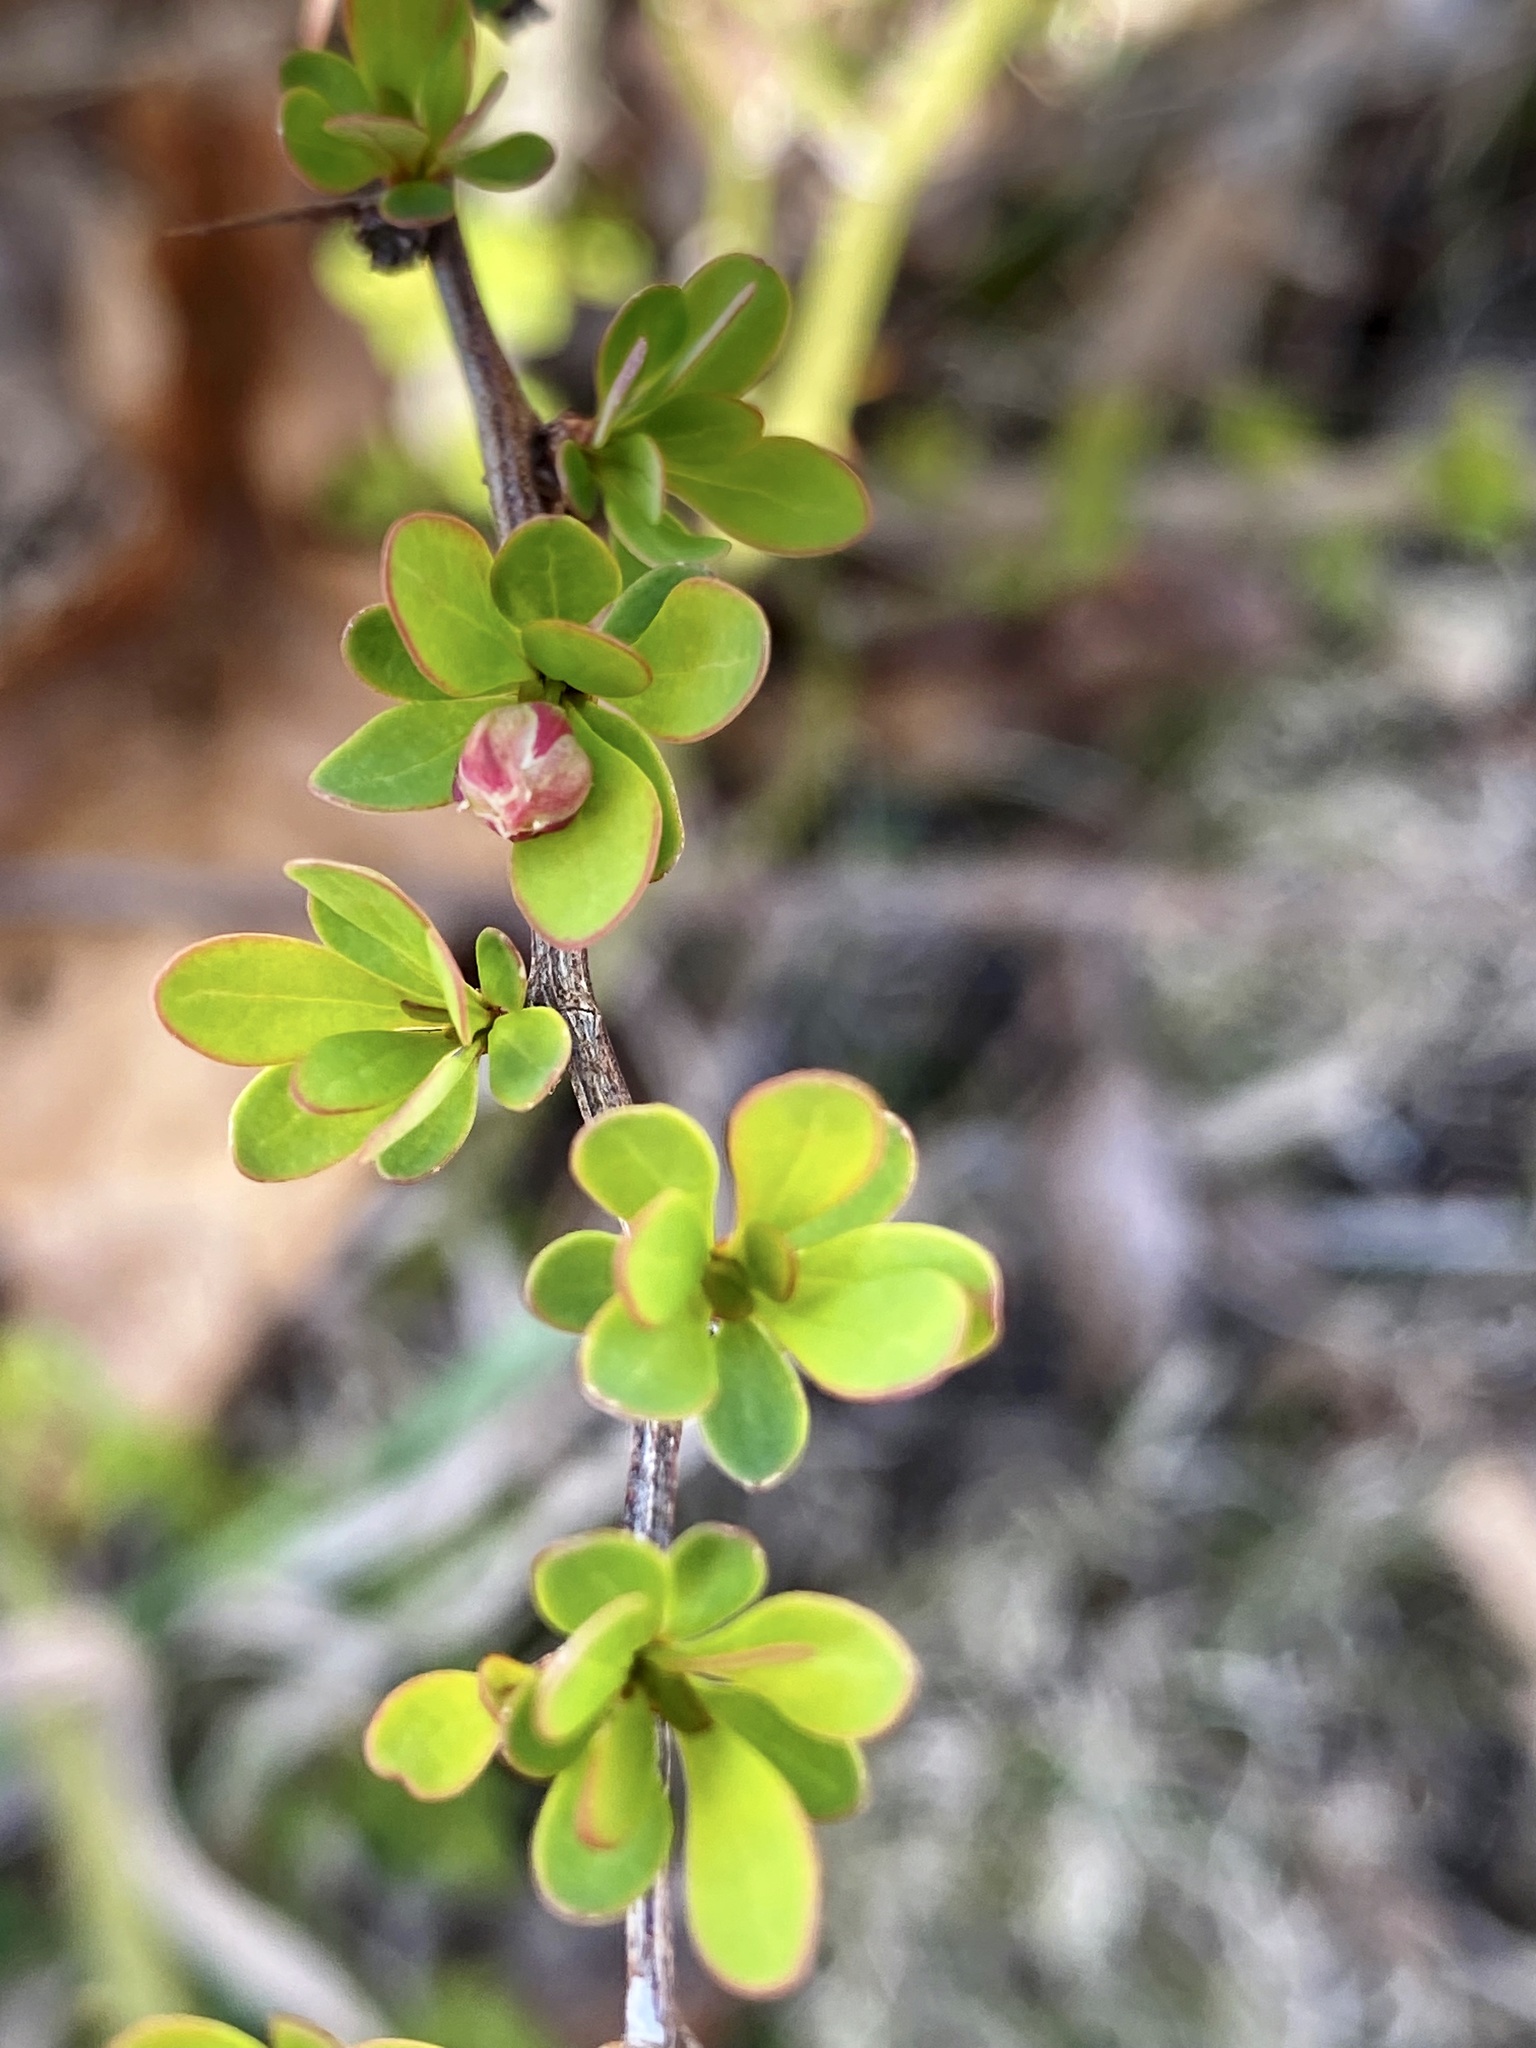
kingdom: Plantae
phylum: Tracheophyta
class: Magnoliopsida
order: Ranunculales
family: Berberidaceae
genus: Berberis
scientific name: Berberis thunbergii
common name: Japanese barberry
